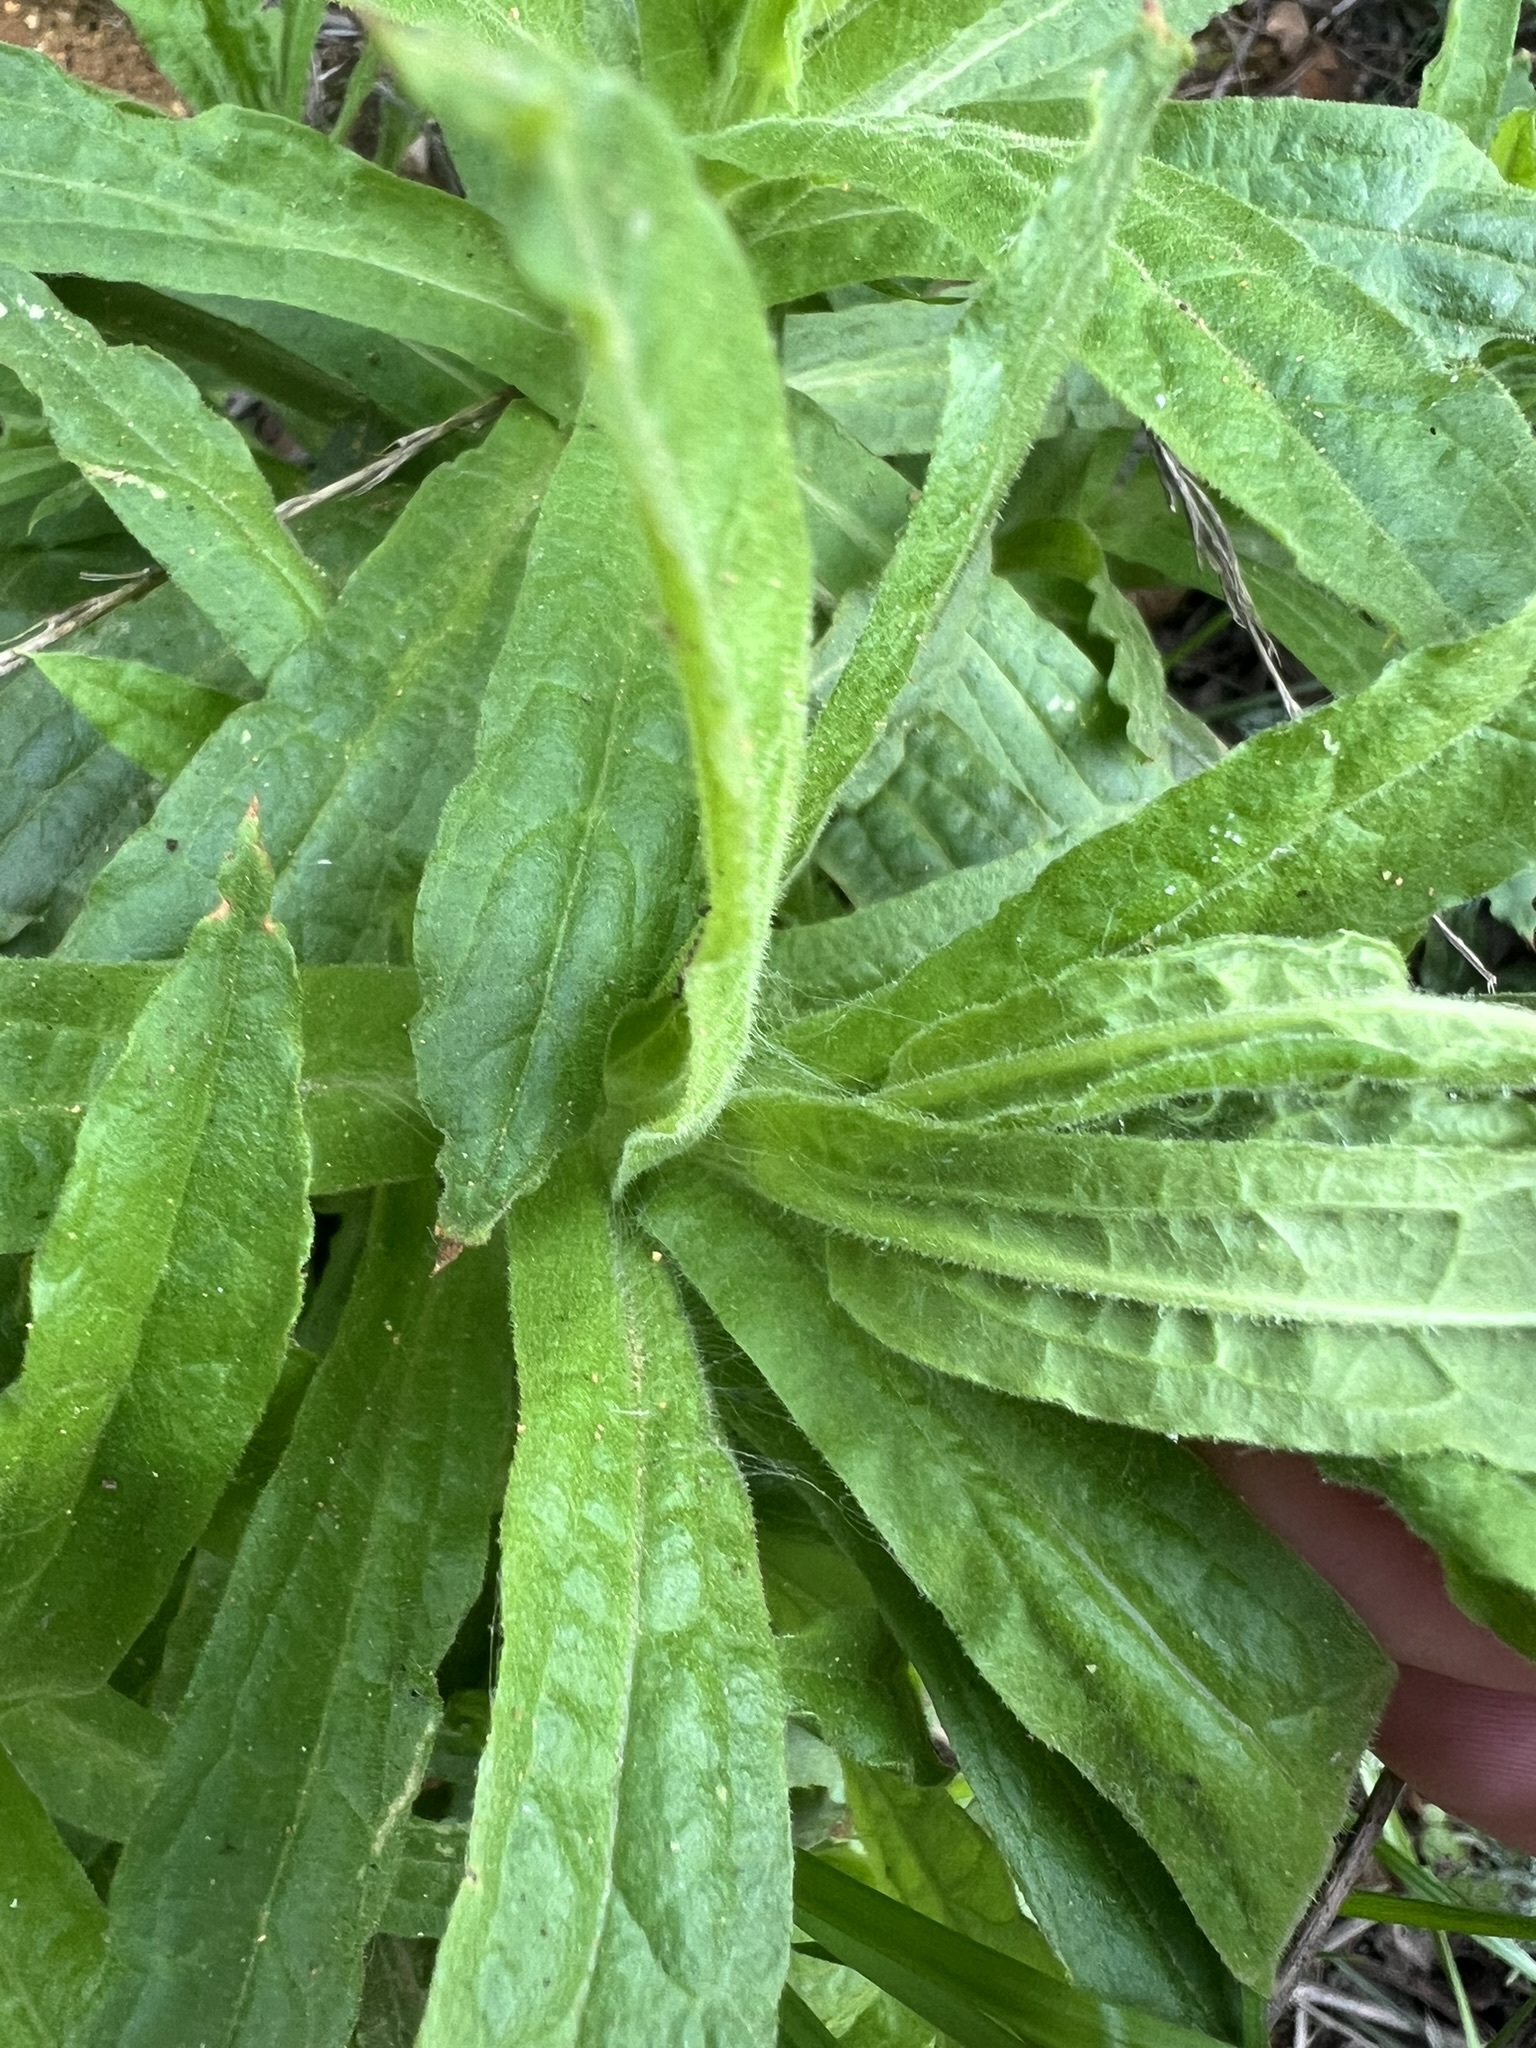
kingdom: Plantae
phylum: Tracheophyta
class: Magnoliopsida
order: Asterales
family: Asteraceae
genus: Pseudognaphalium
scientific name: Pseudognaphalium californicum
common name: California rabbit-tobacco
